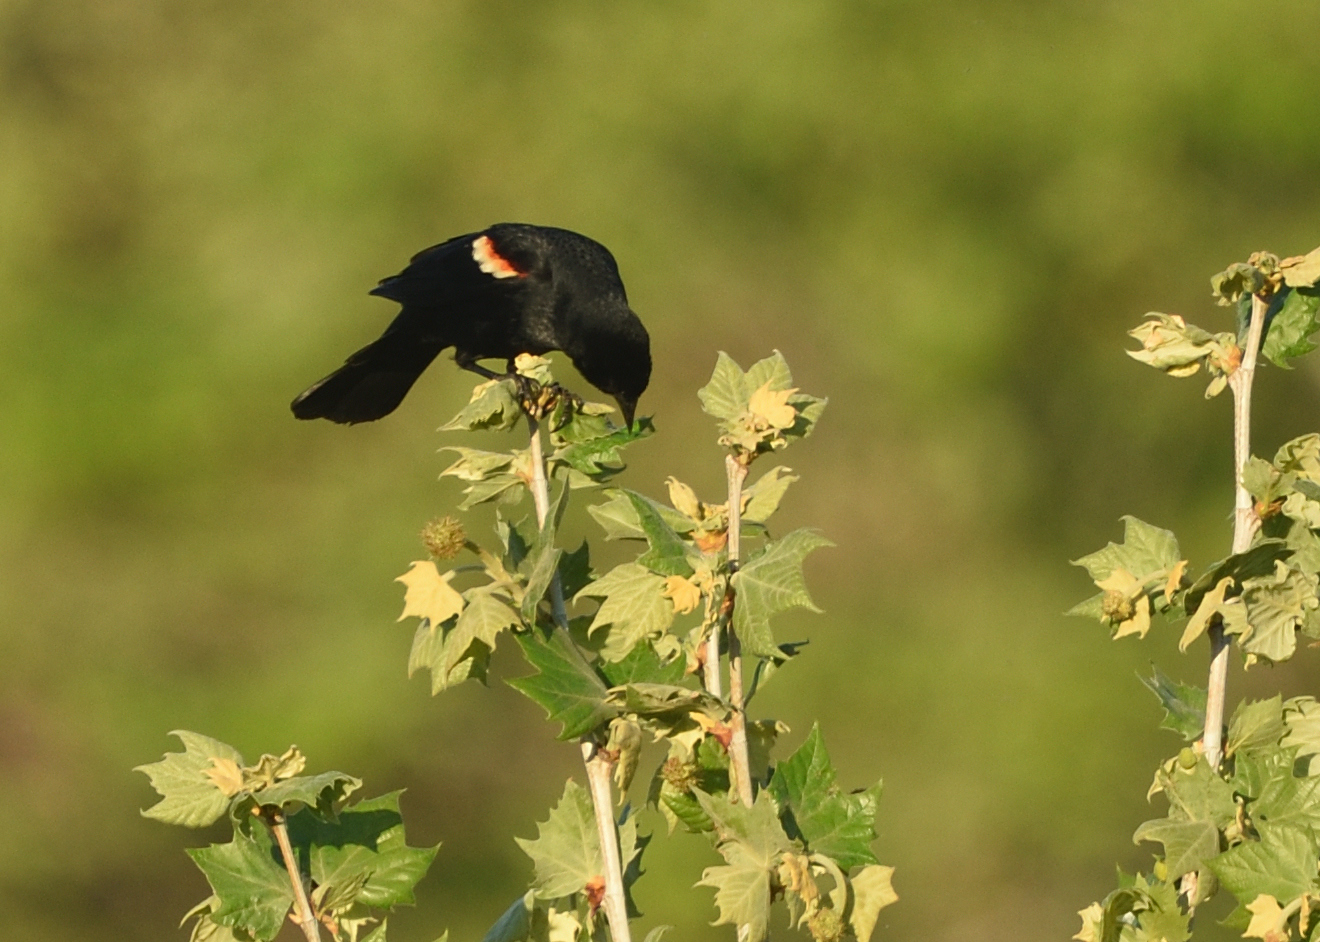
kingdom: Animalia
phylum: Chordata
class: Aves
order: Passeriformes
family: Icteridae
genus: Agelaius
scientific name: Agelaius phoeniceus
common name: Red-winged blackbird
